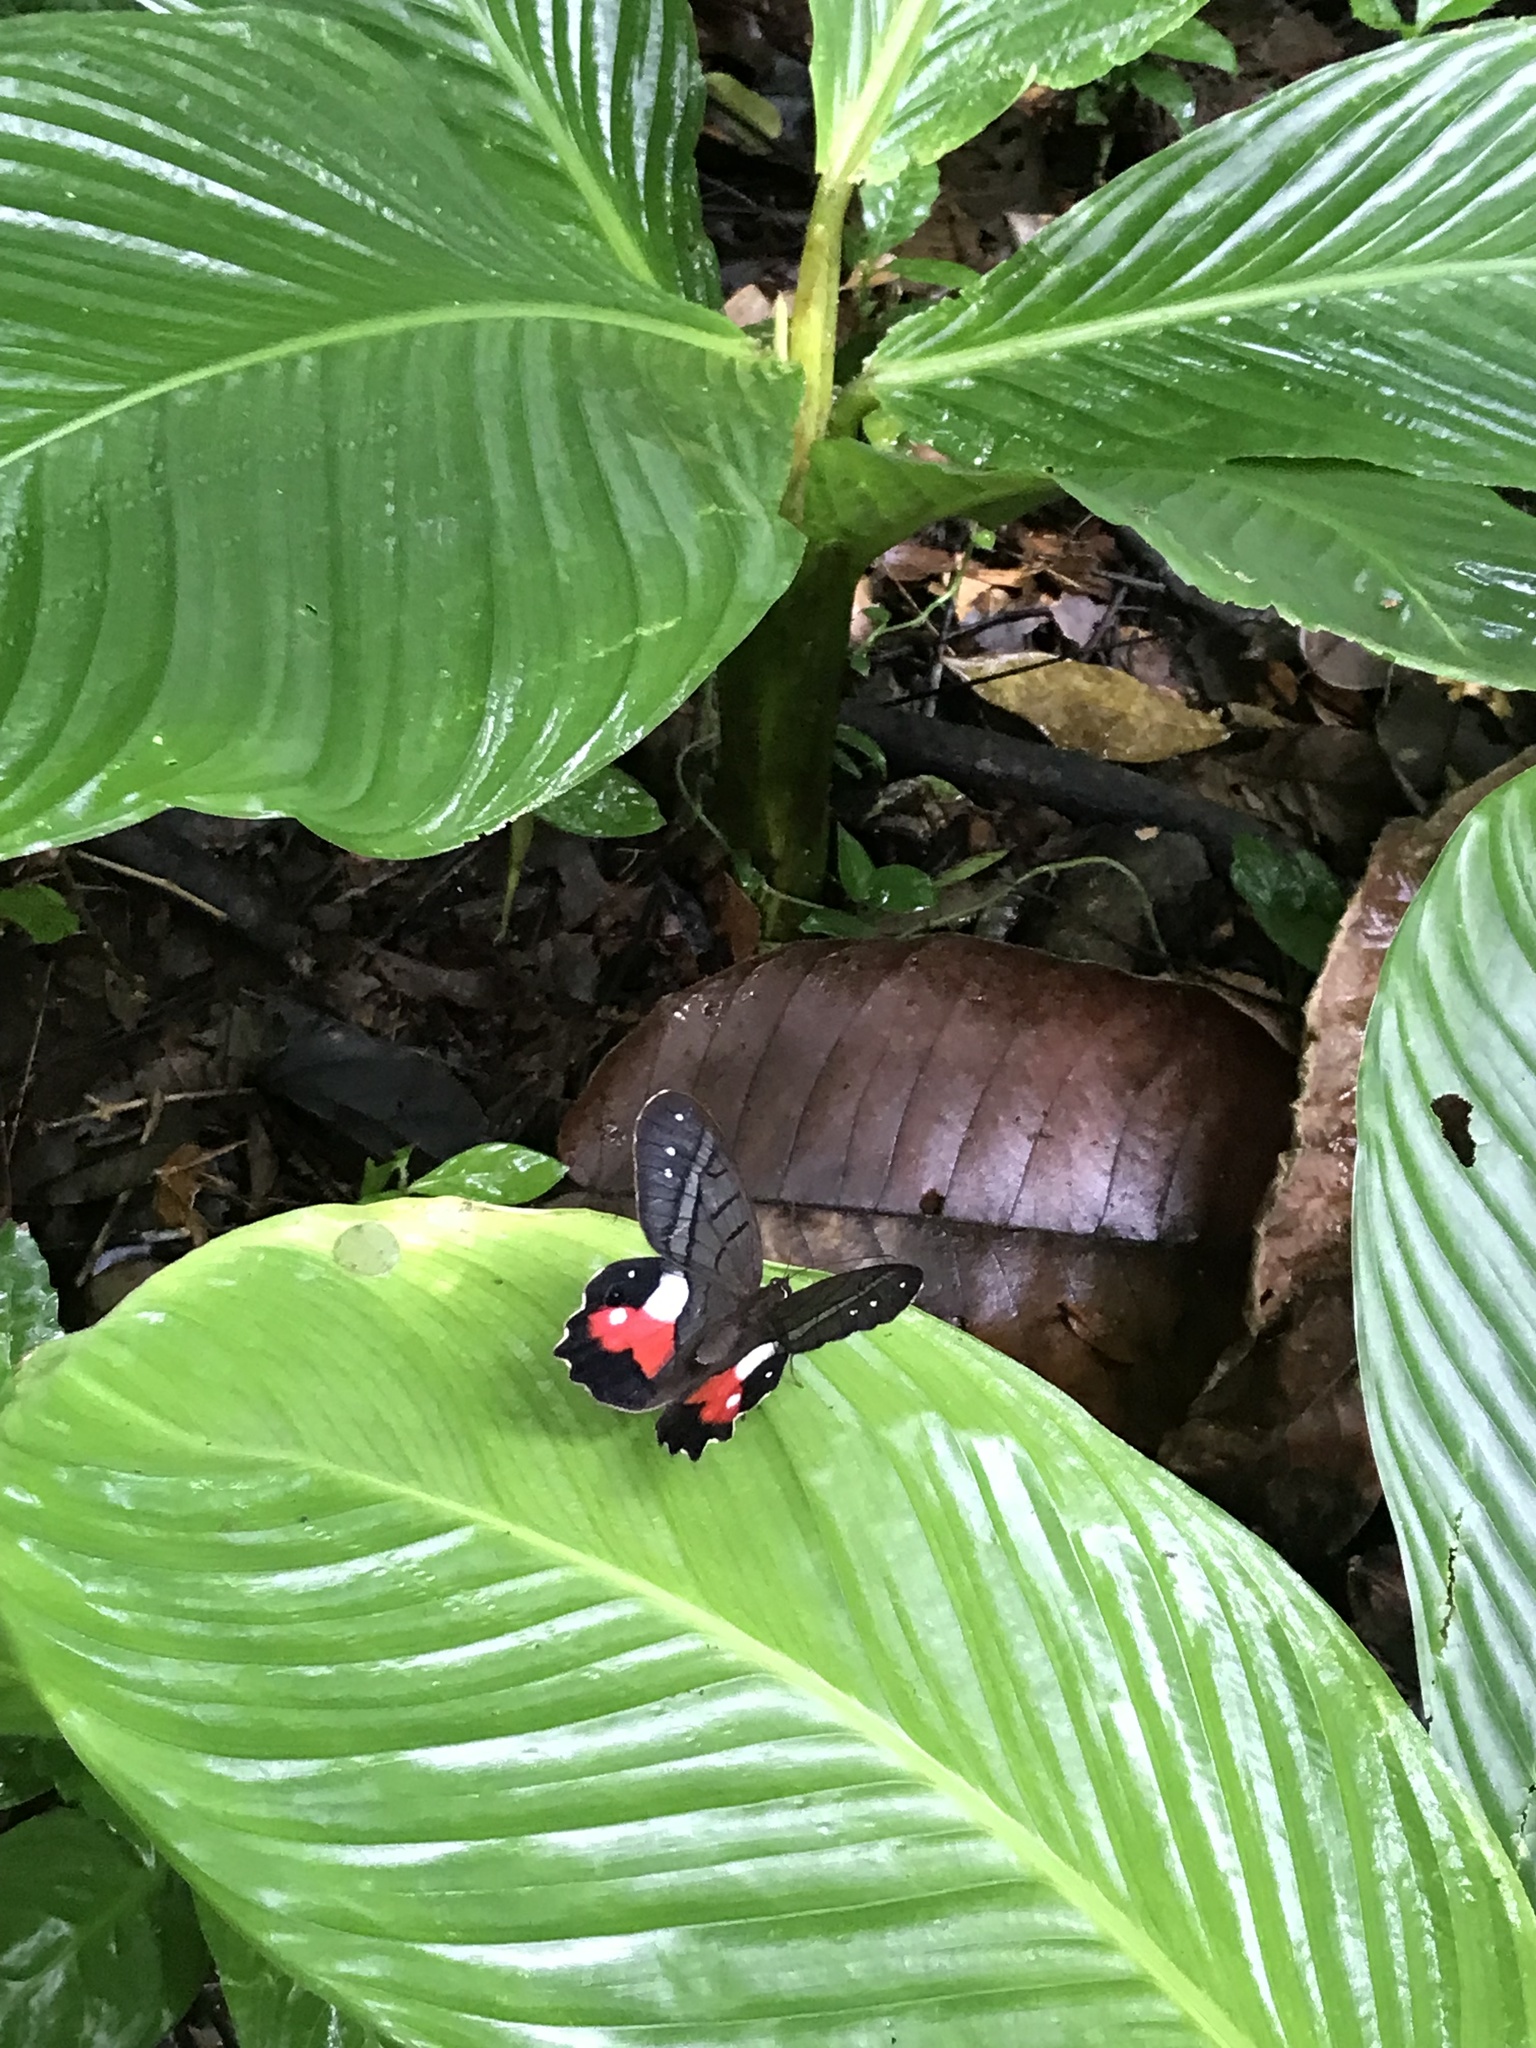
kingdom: Animalia
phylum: Arthropoda
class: Insecta
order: Lepidoptera
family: Nymphalidae
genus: Pierella
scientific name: Pierella helvina
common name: Red-washed satyr
